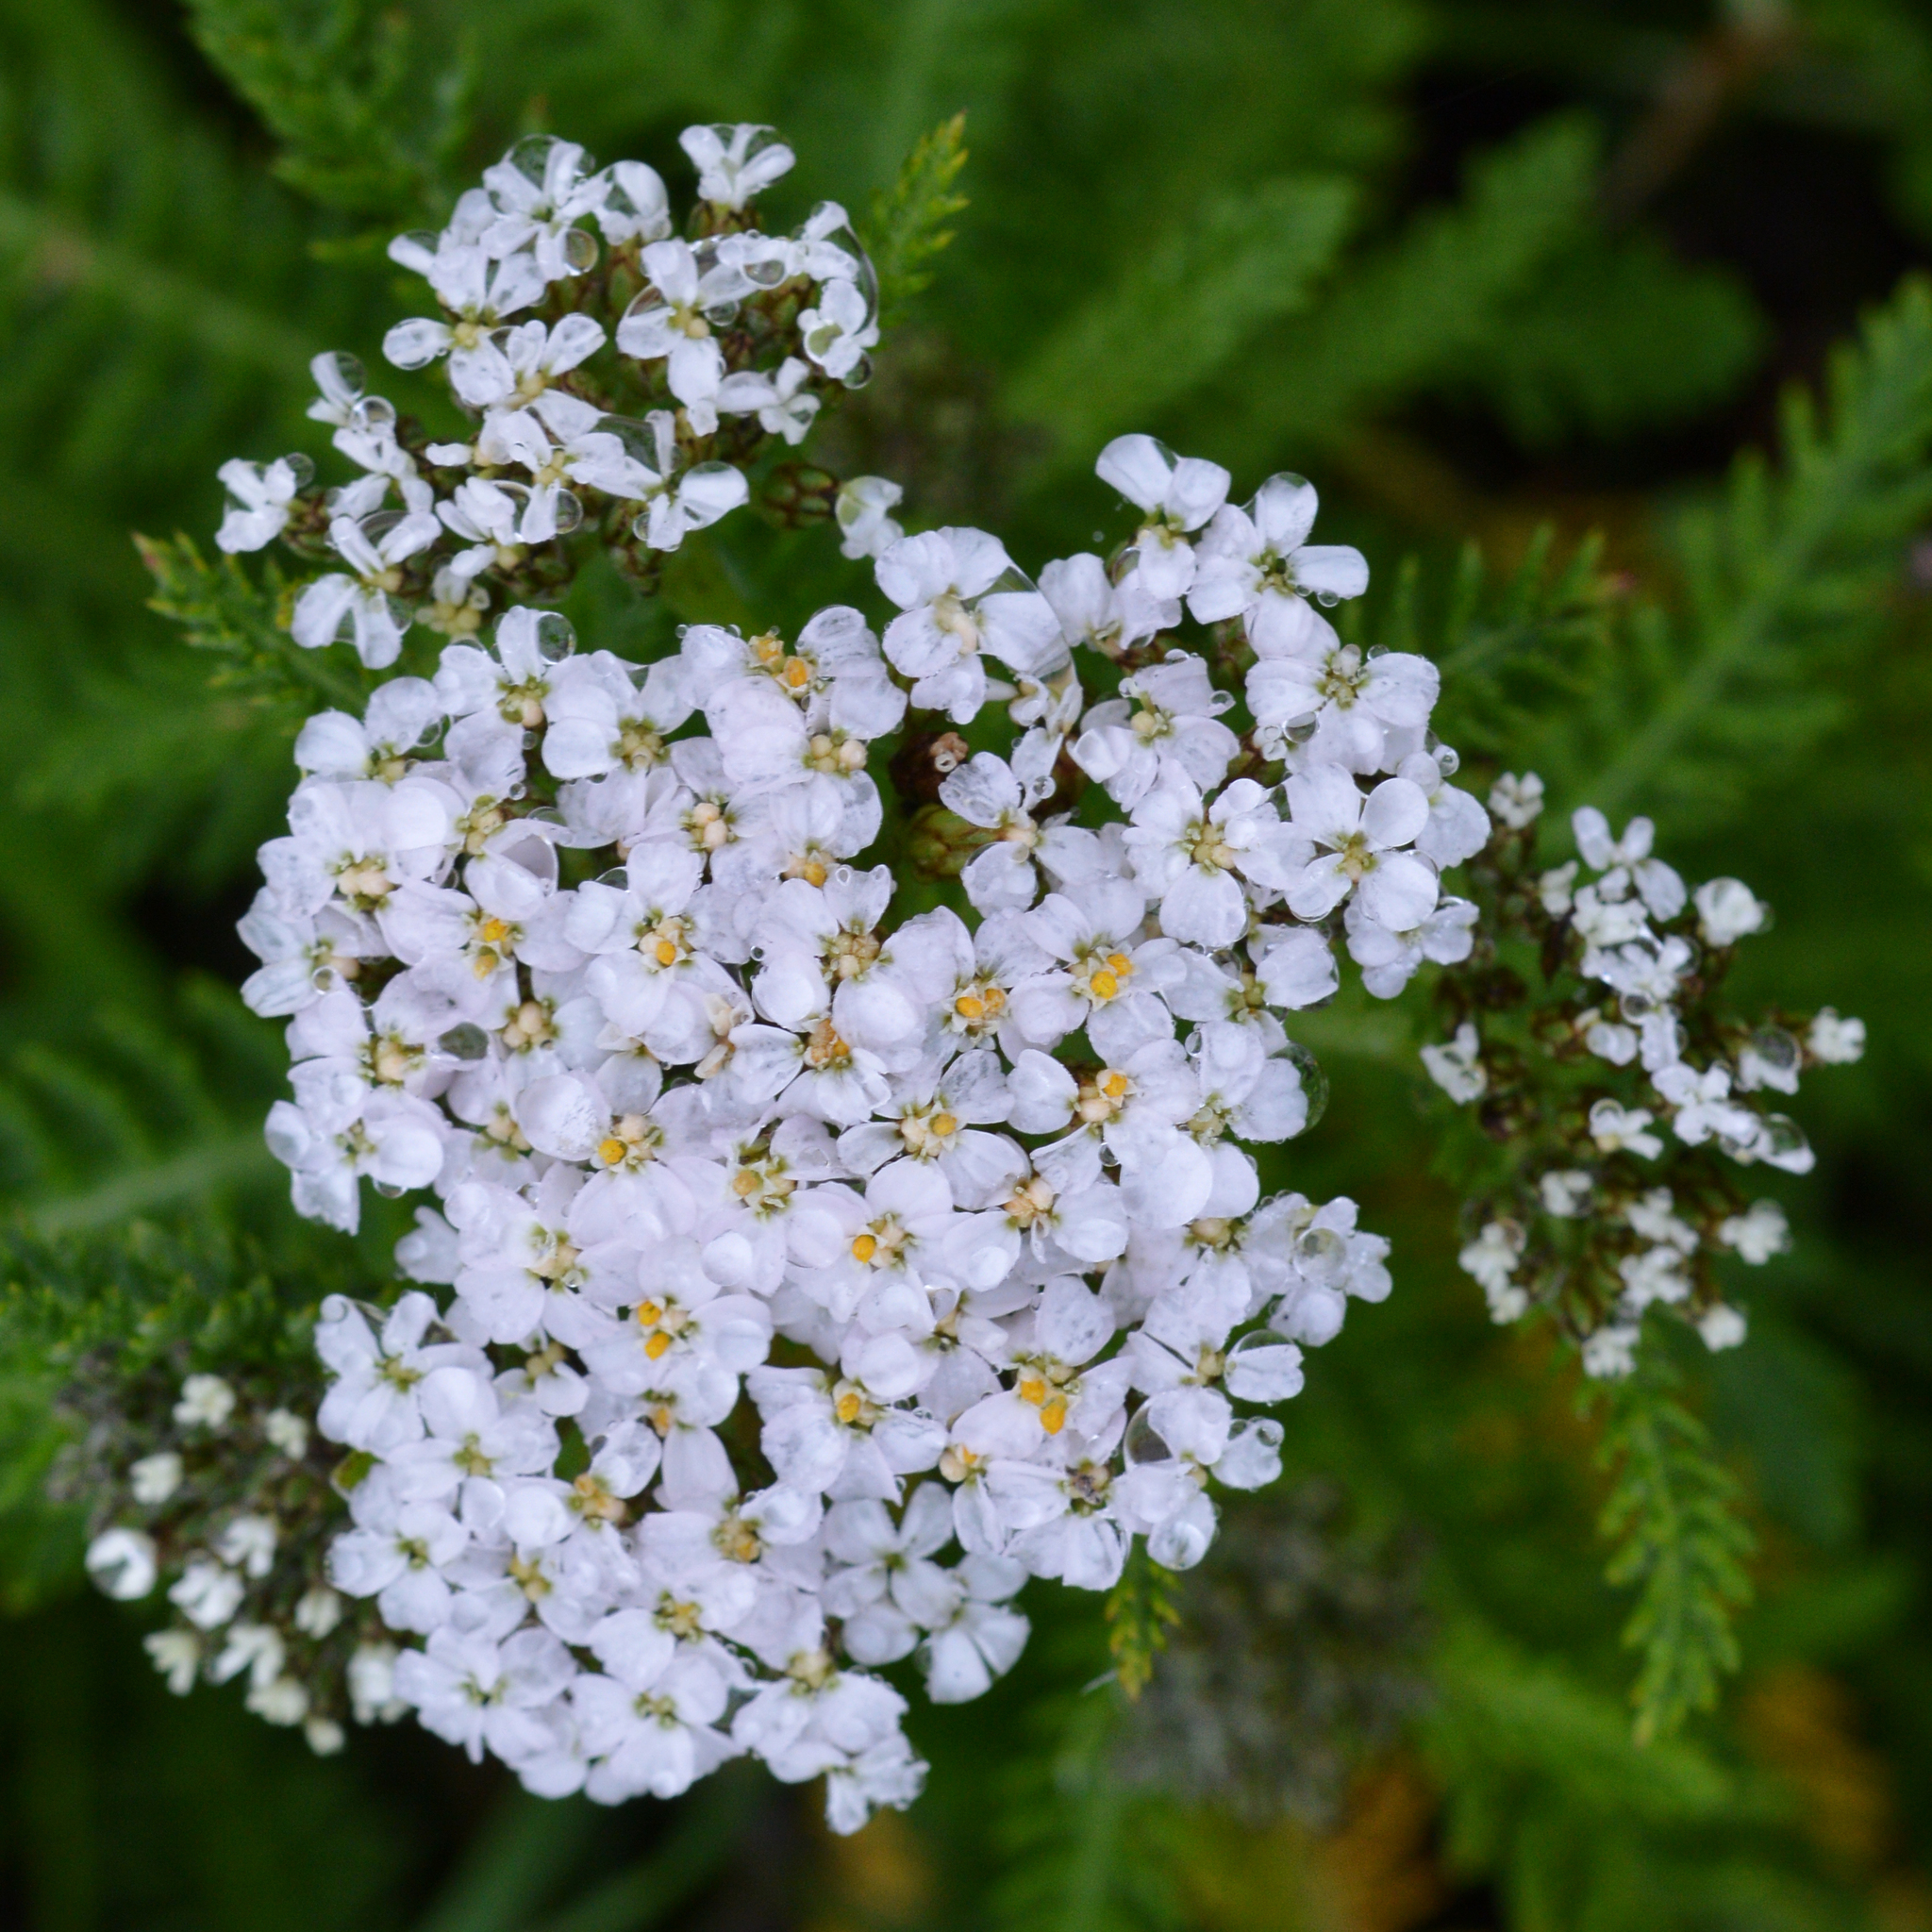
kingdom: Plantae
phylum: Tracheophyta
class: Magnoliopsida
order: Asterales
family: Asteraceae
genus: Achillea
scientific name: Achillea millefolium
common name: Yarrow
